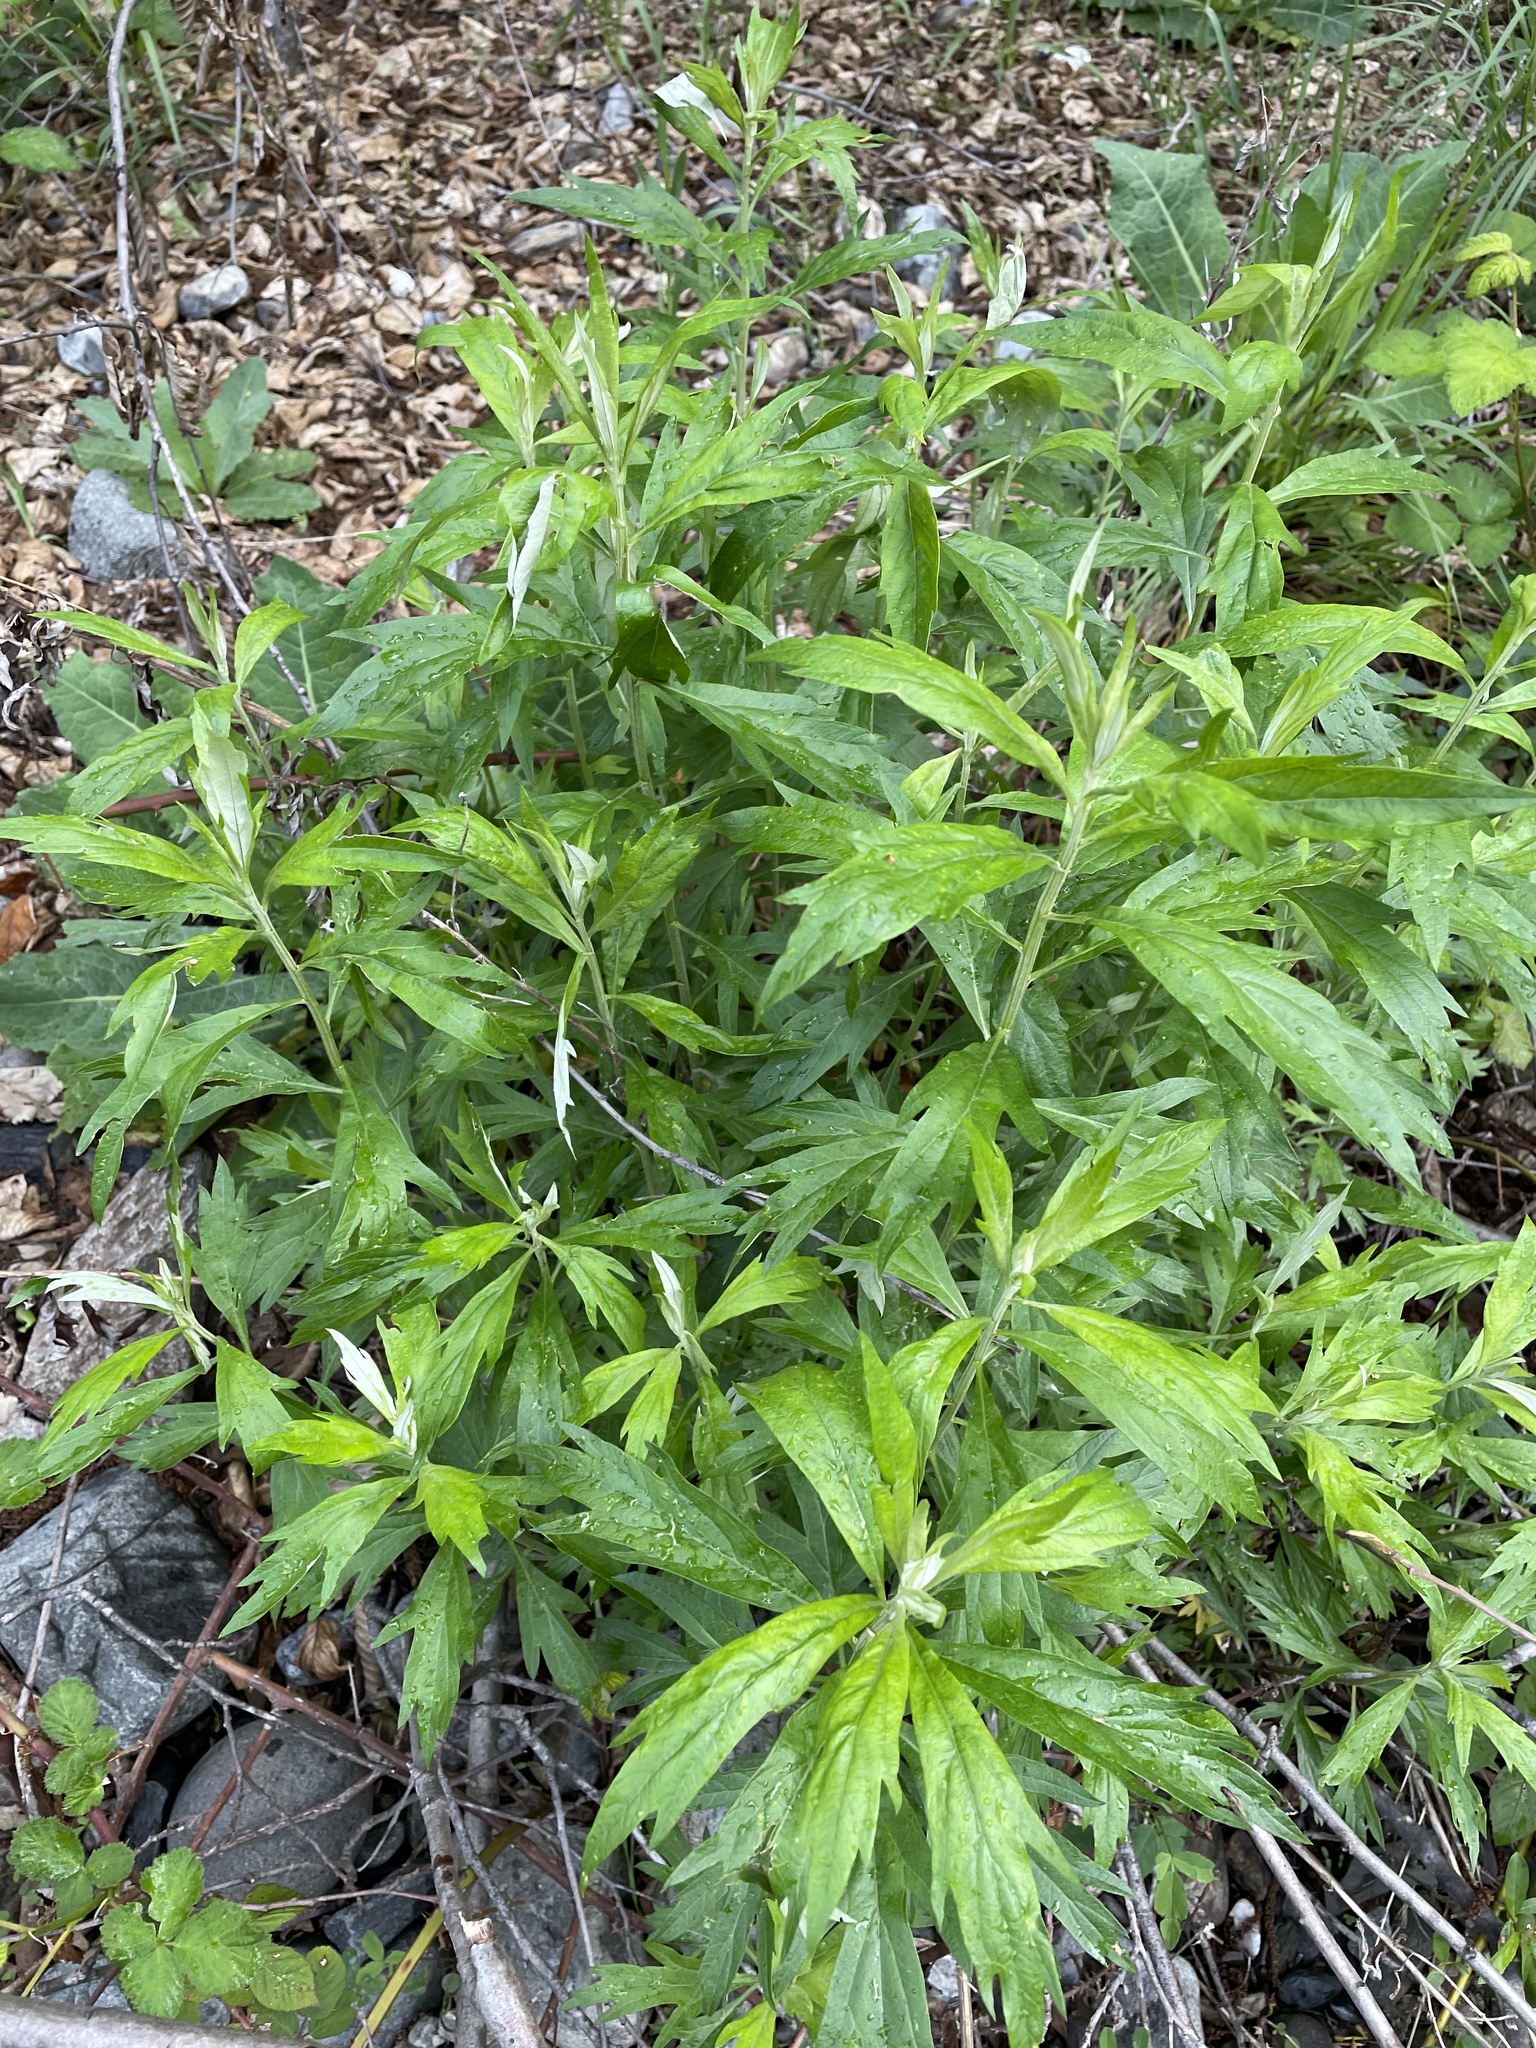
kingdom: Plantae
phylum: Tracheophyta
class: Magnoliopsida
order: Asterales
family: Asteraceae
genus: Artemisia
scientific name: Artemisia douglasiana
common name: Northwest mugwort
